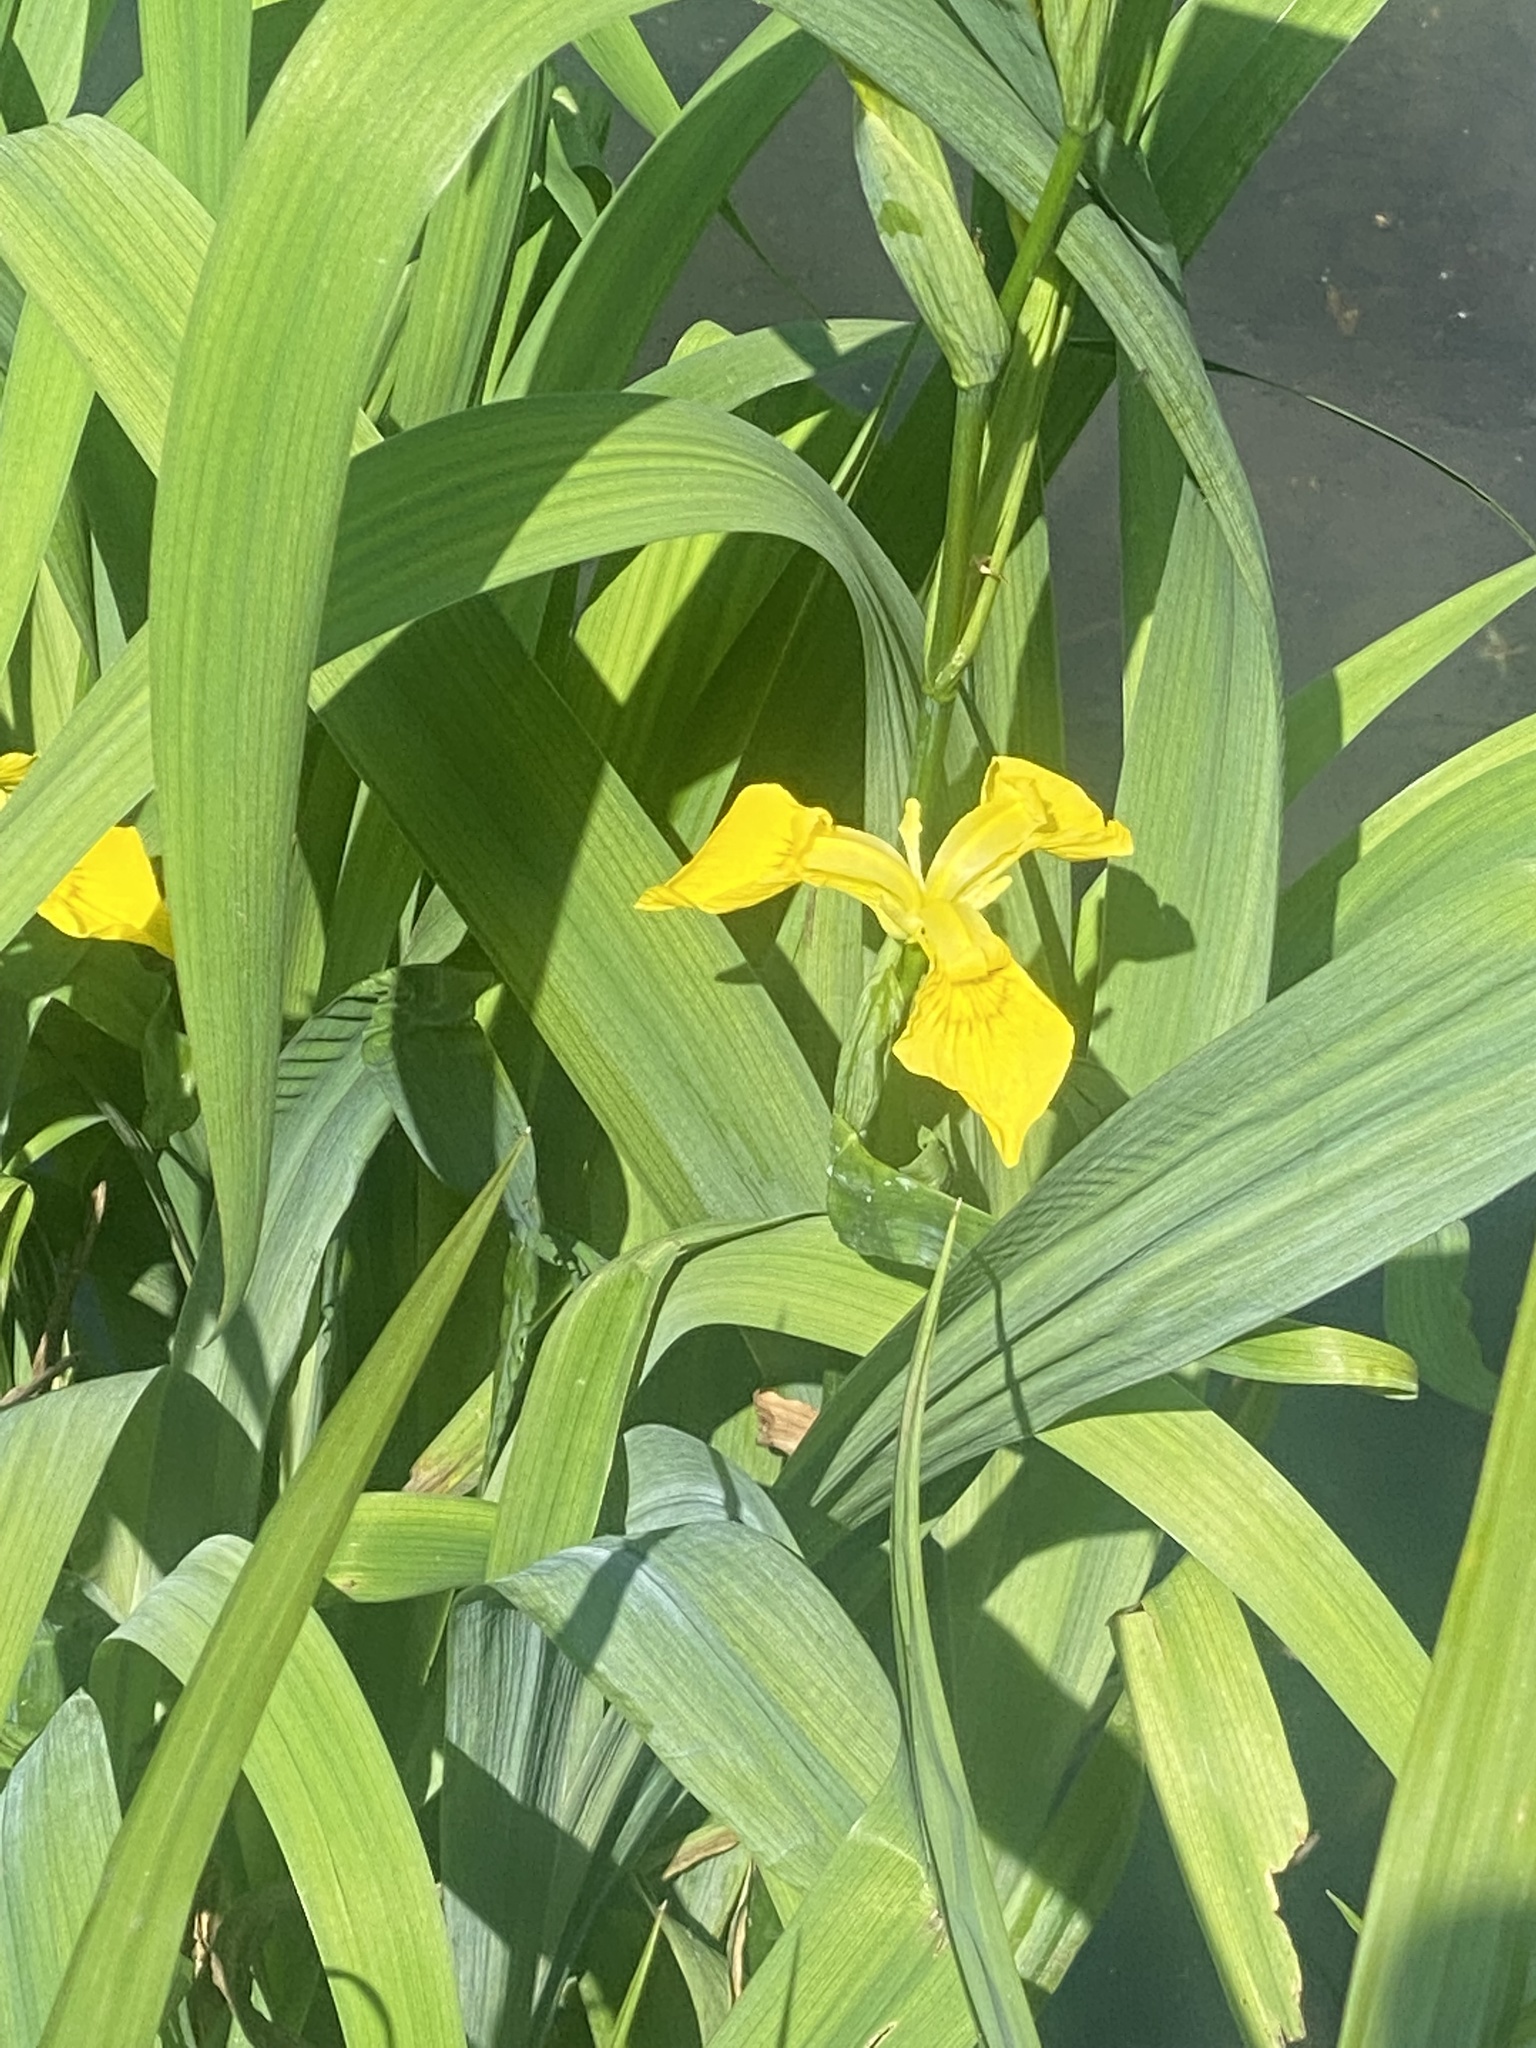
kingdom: Plantae
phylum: Tracheophyta
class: Liliopsida
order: Asparagales
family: Iridaceae
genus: Iris
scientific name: Iris pseudacorus
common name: Yellow flag
